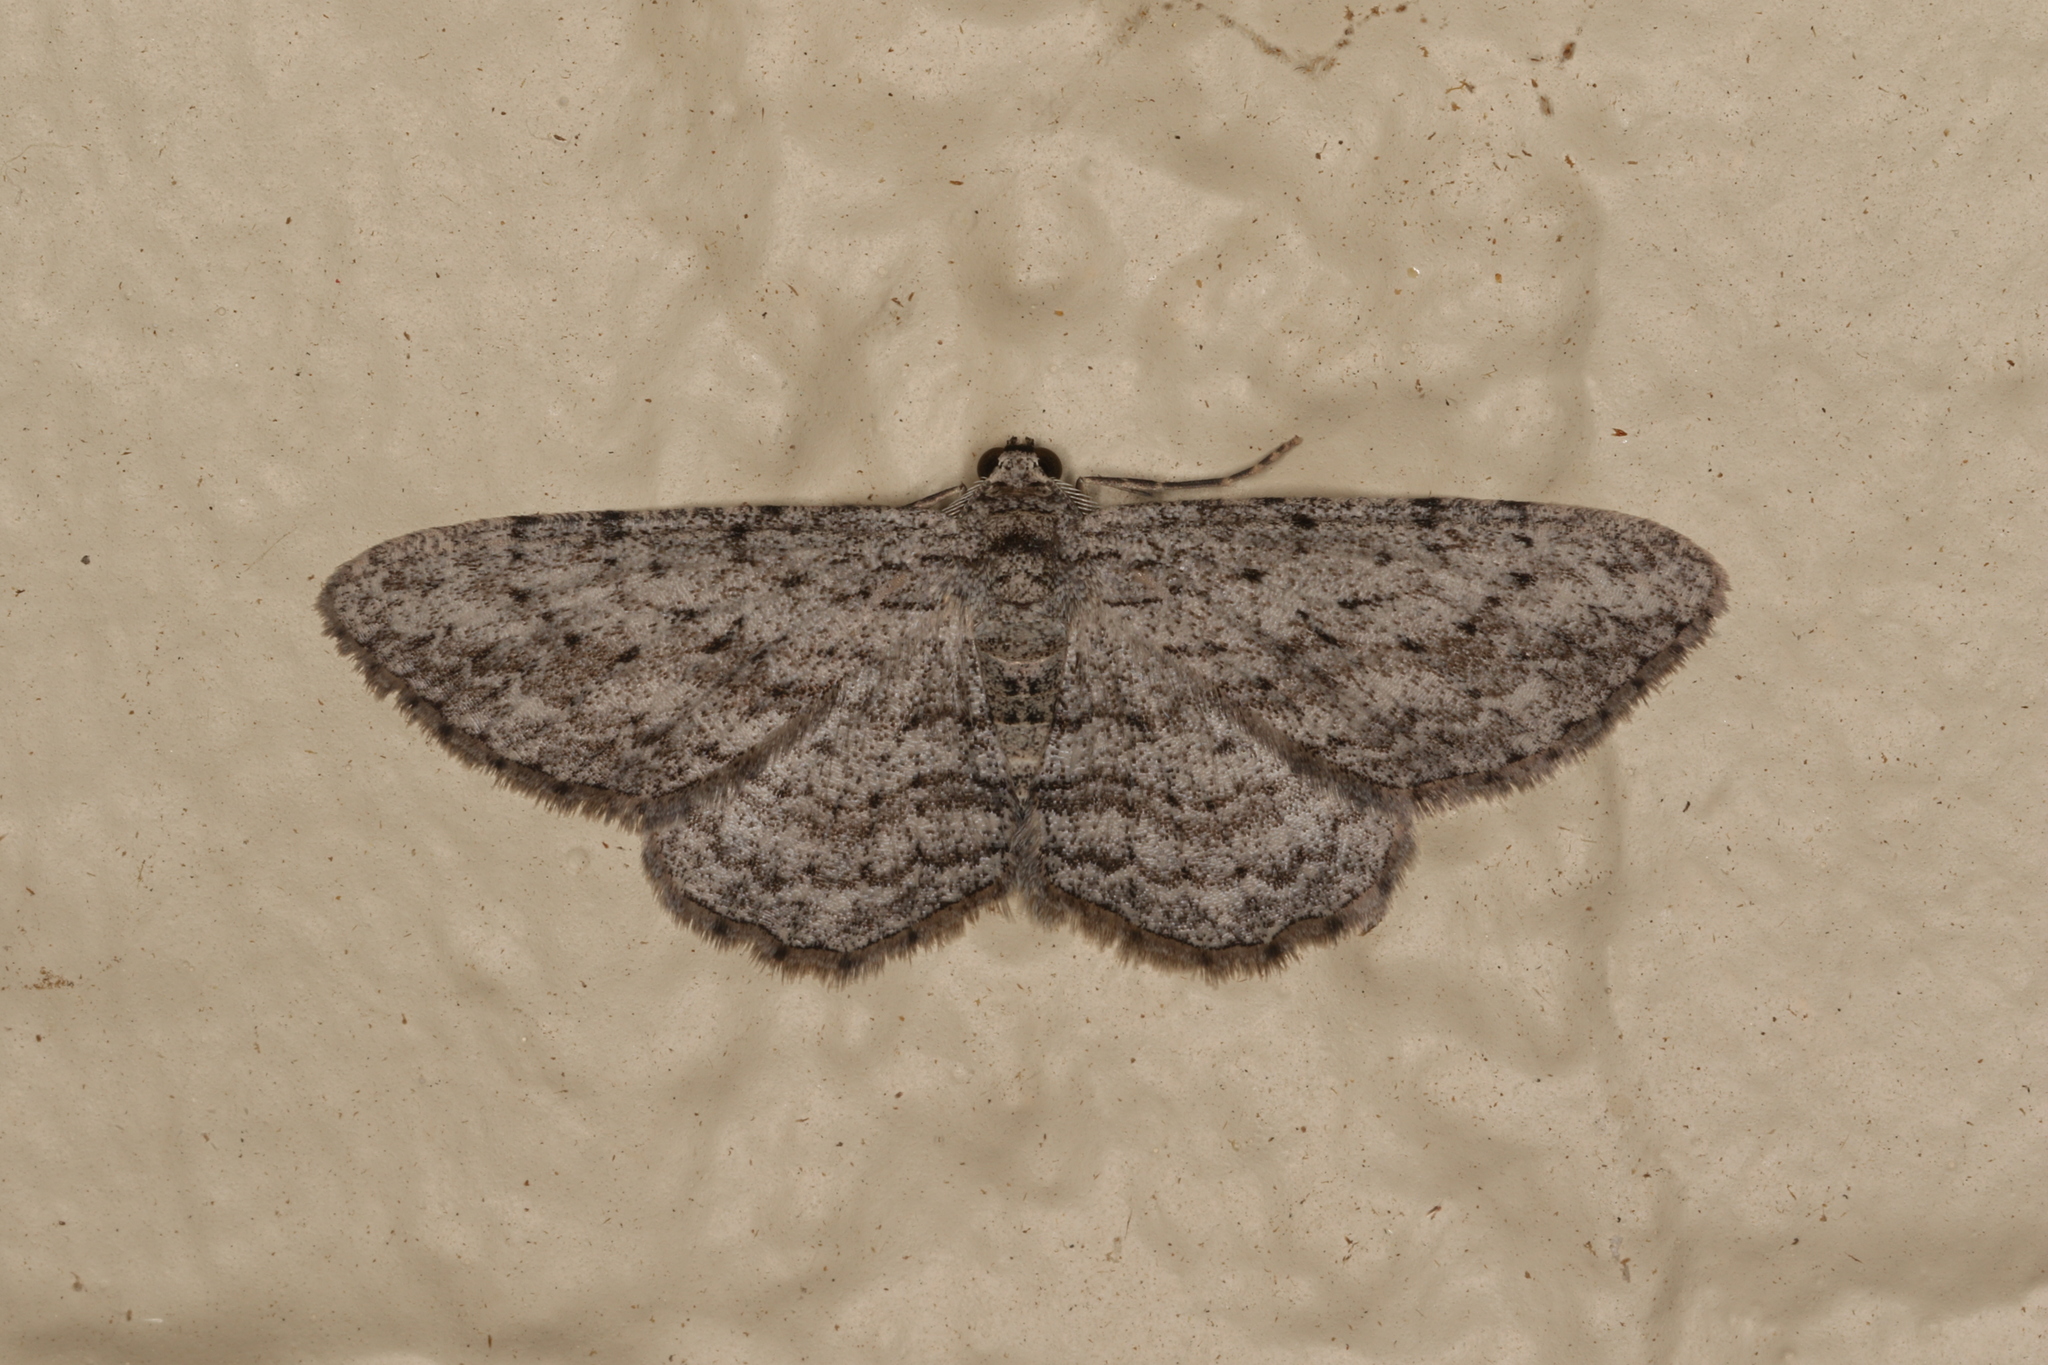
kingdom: Animalia
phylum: Arthropoda
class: Insecta
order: Lepidoptera
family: Geometridae
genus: Phelotis
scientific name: Phelotis cognata
